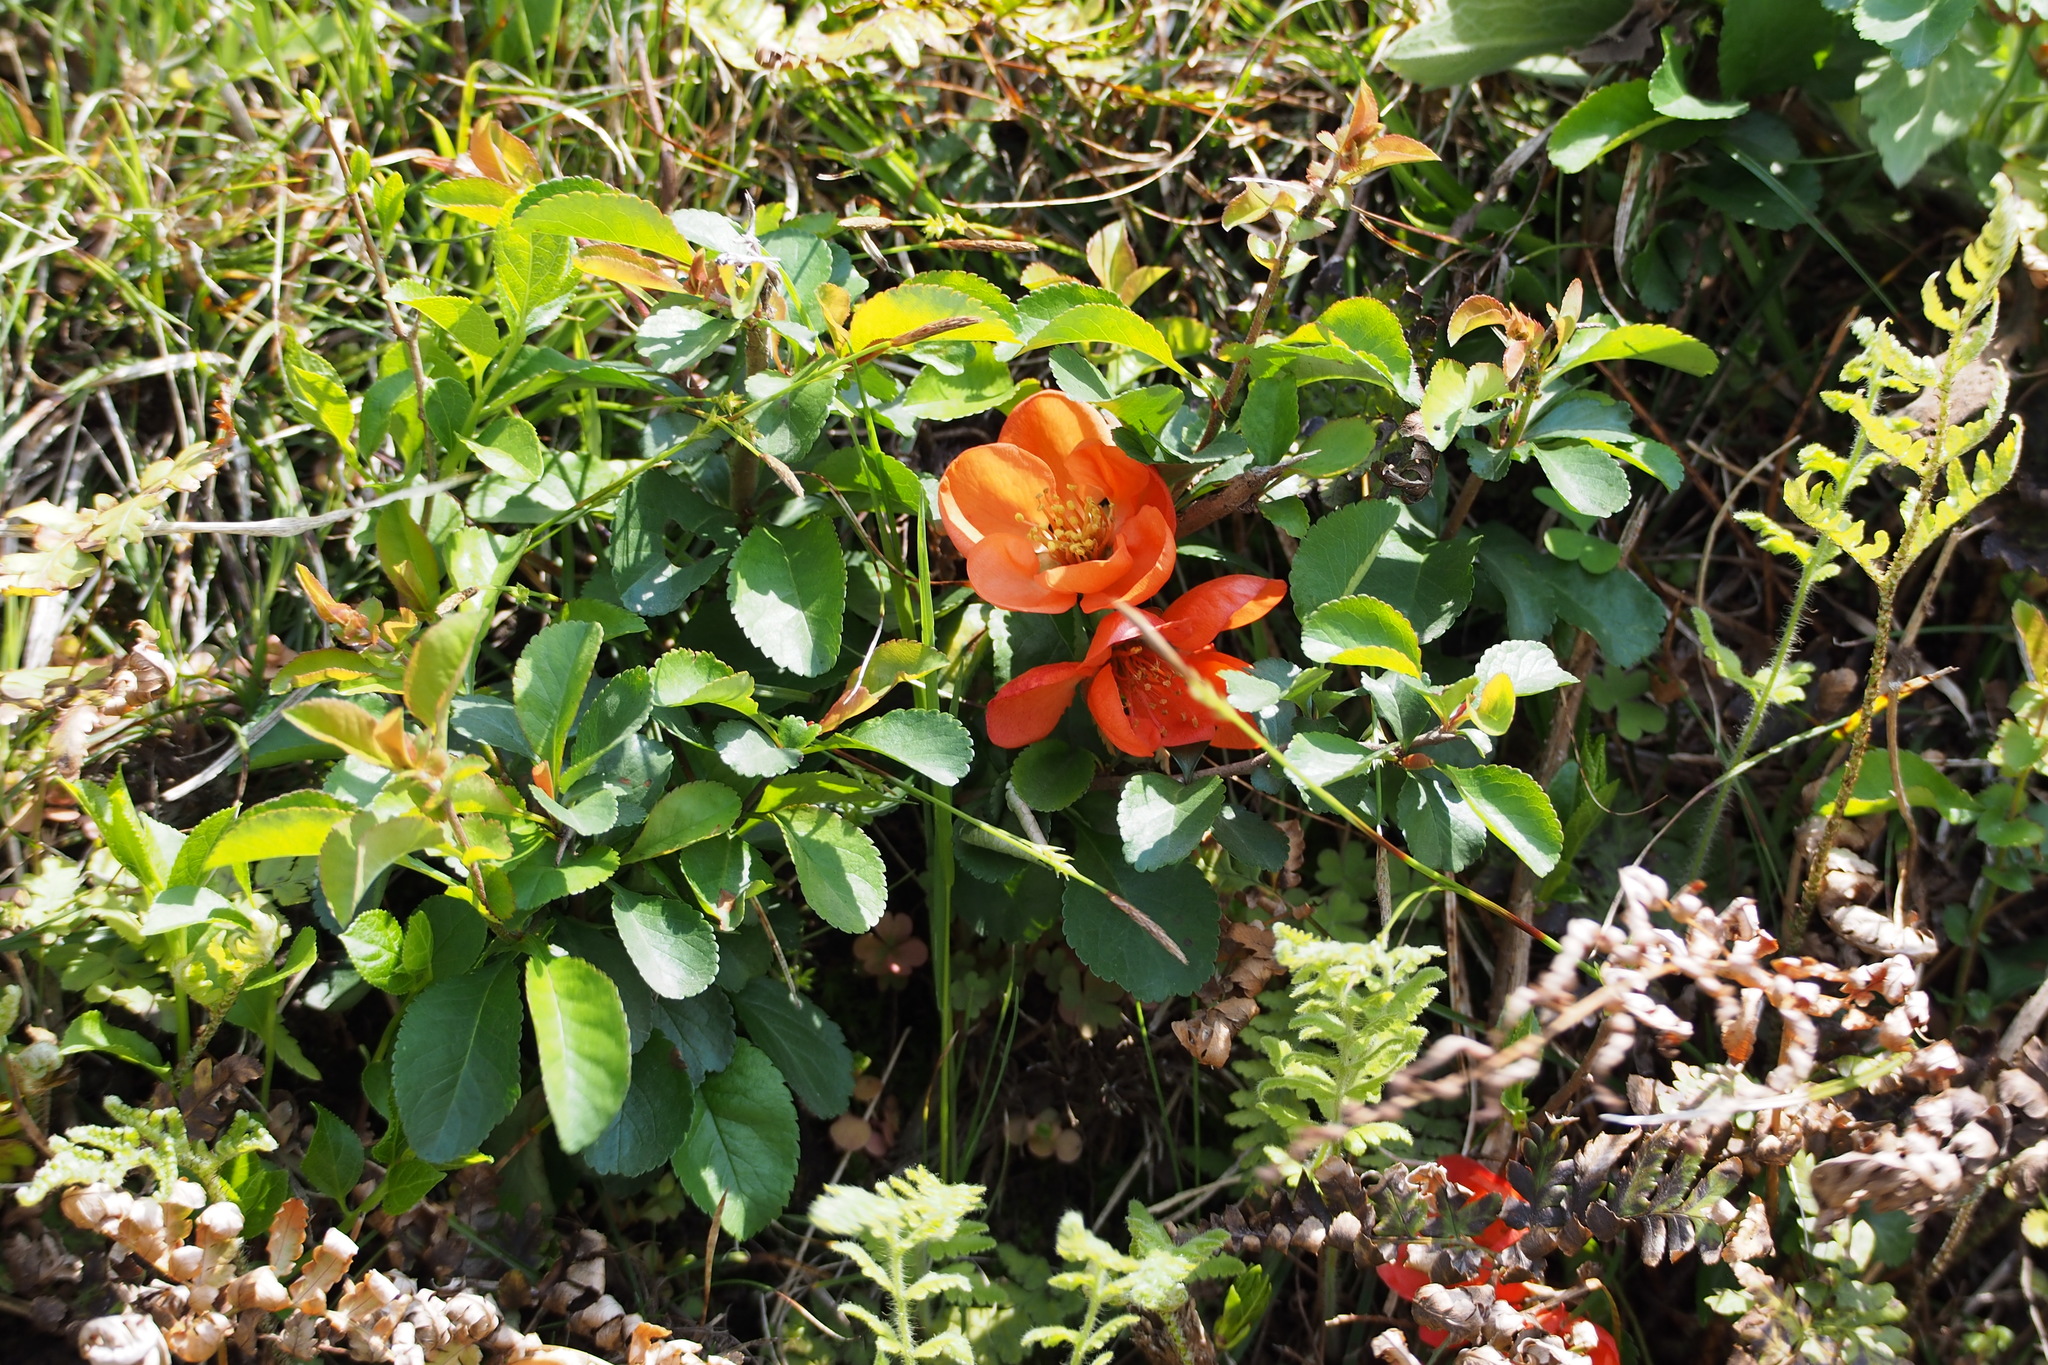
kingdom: Plantae
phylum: Tracheophyta
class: Magnoliopsida
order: Rosales
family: Rosaceae
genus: Chaenomeles
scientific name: Chaenomeles japonica
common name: Japanese quince
